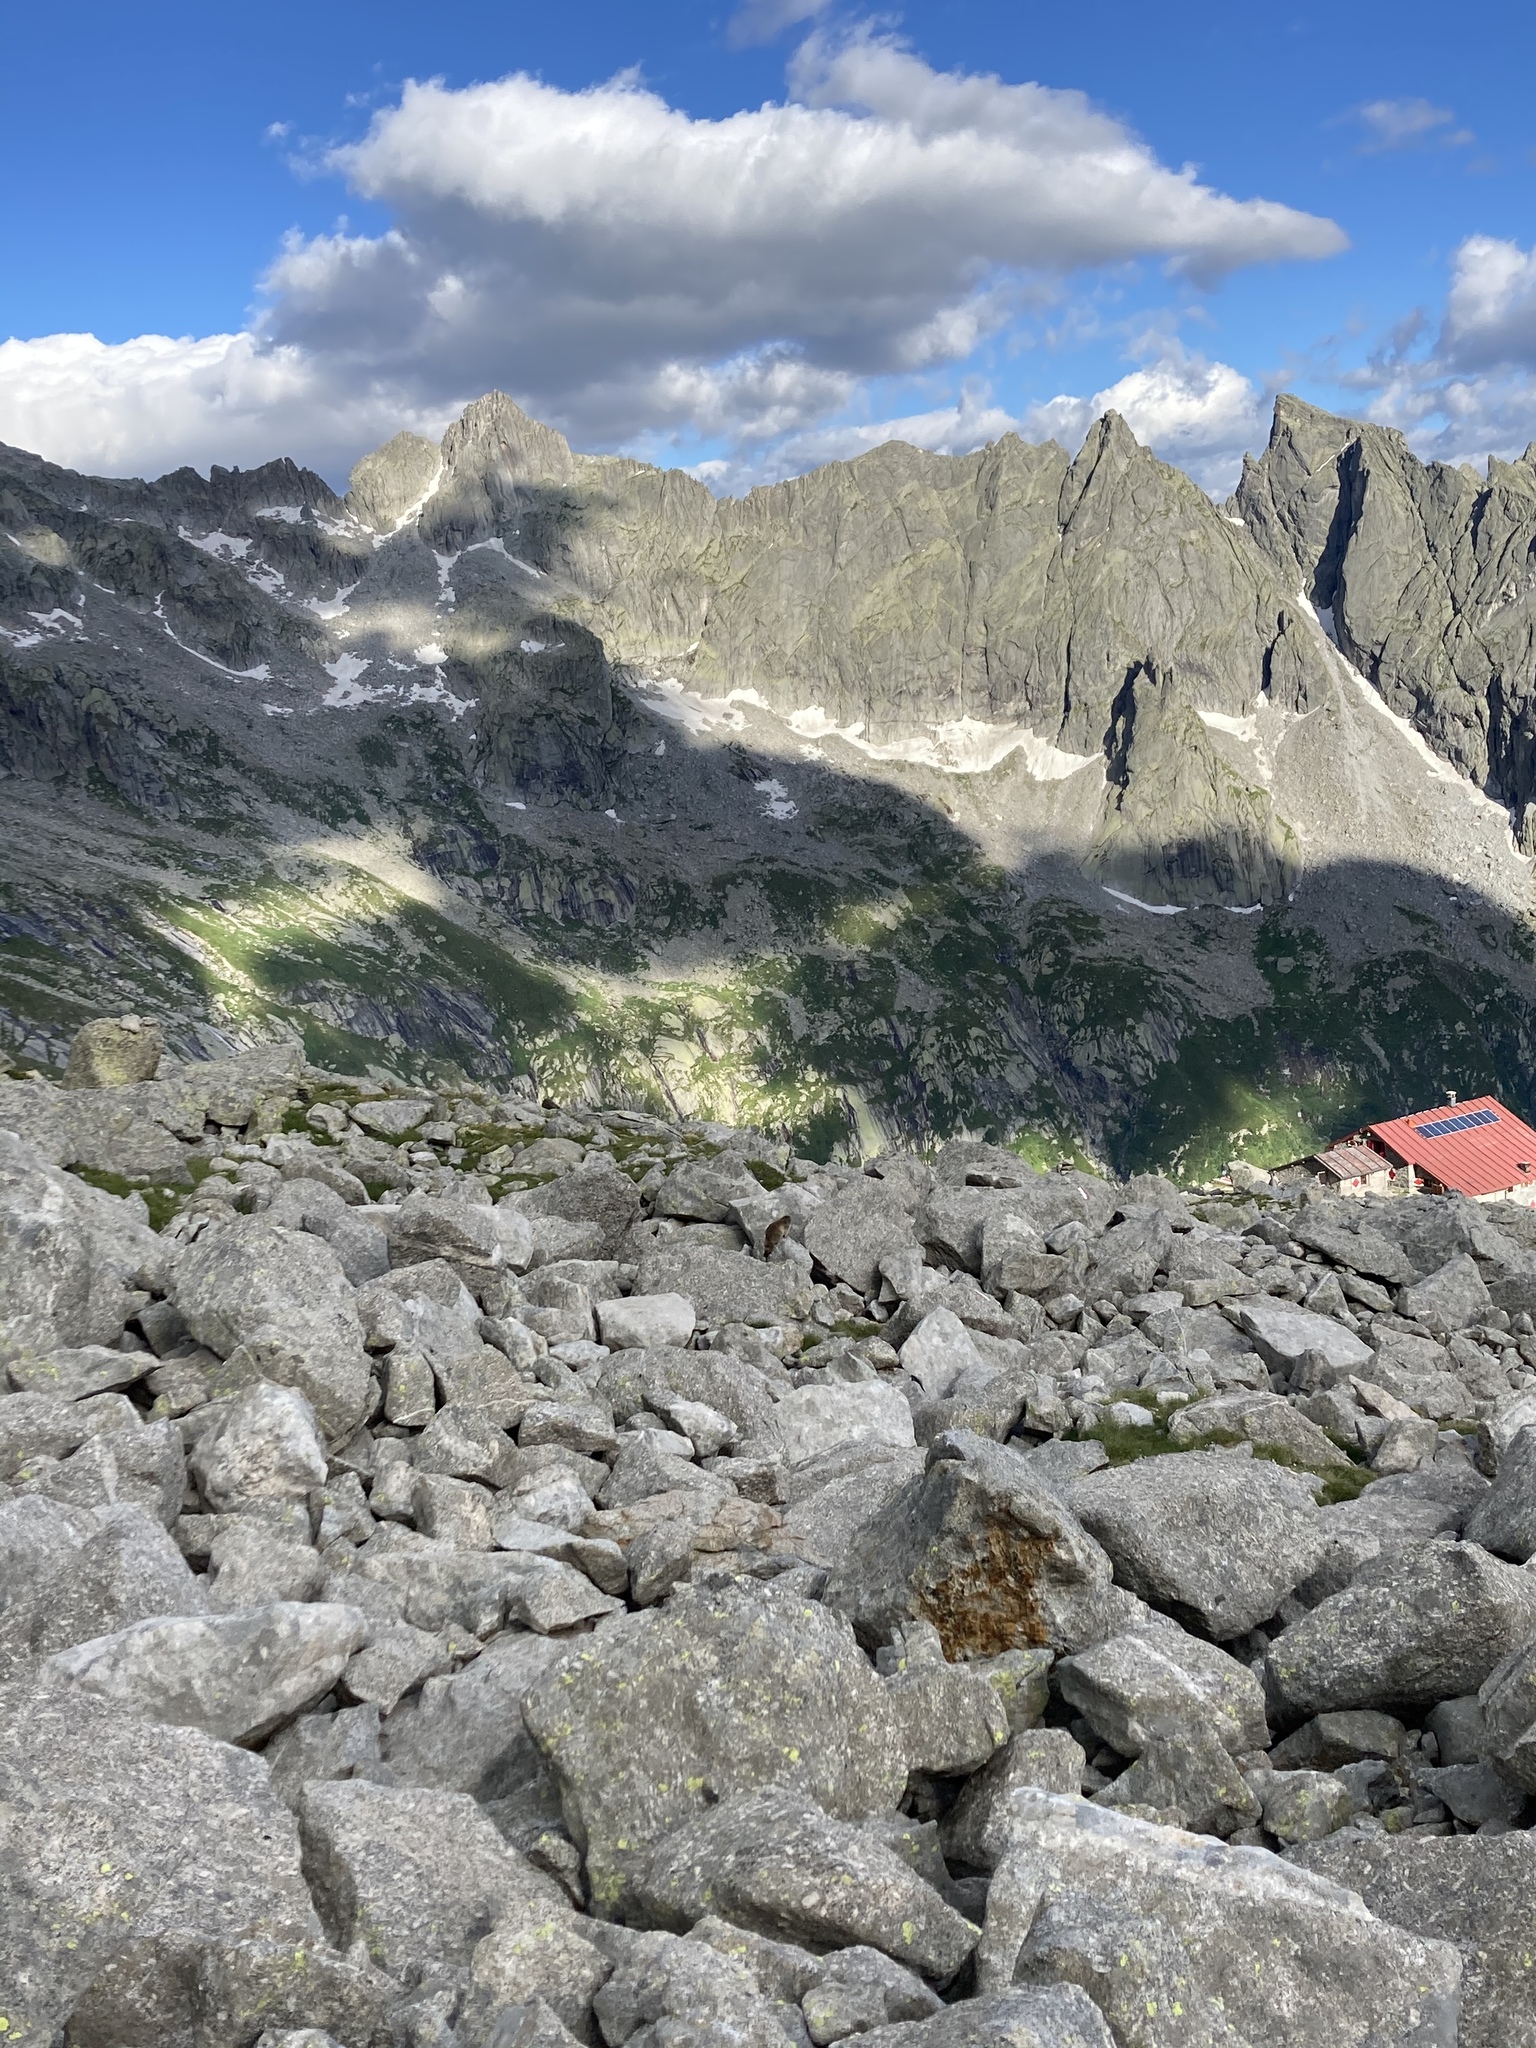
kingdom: Animalia
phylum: Chordata
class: Mammalia
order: Rodentia
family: Sciuridae
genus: Marmota
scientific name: Marmota marmota
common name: Alpine marmot
